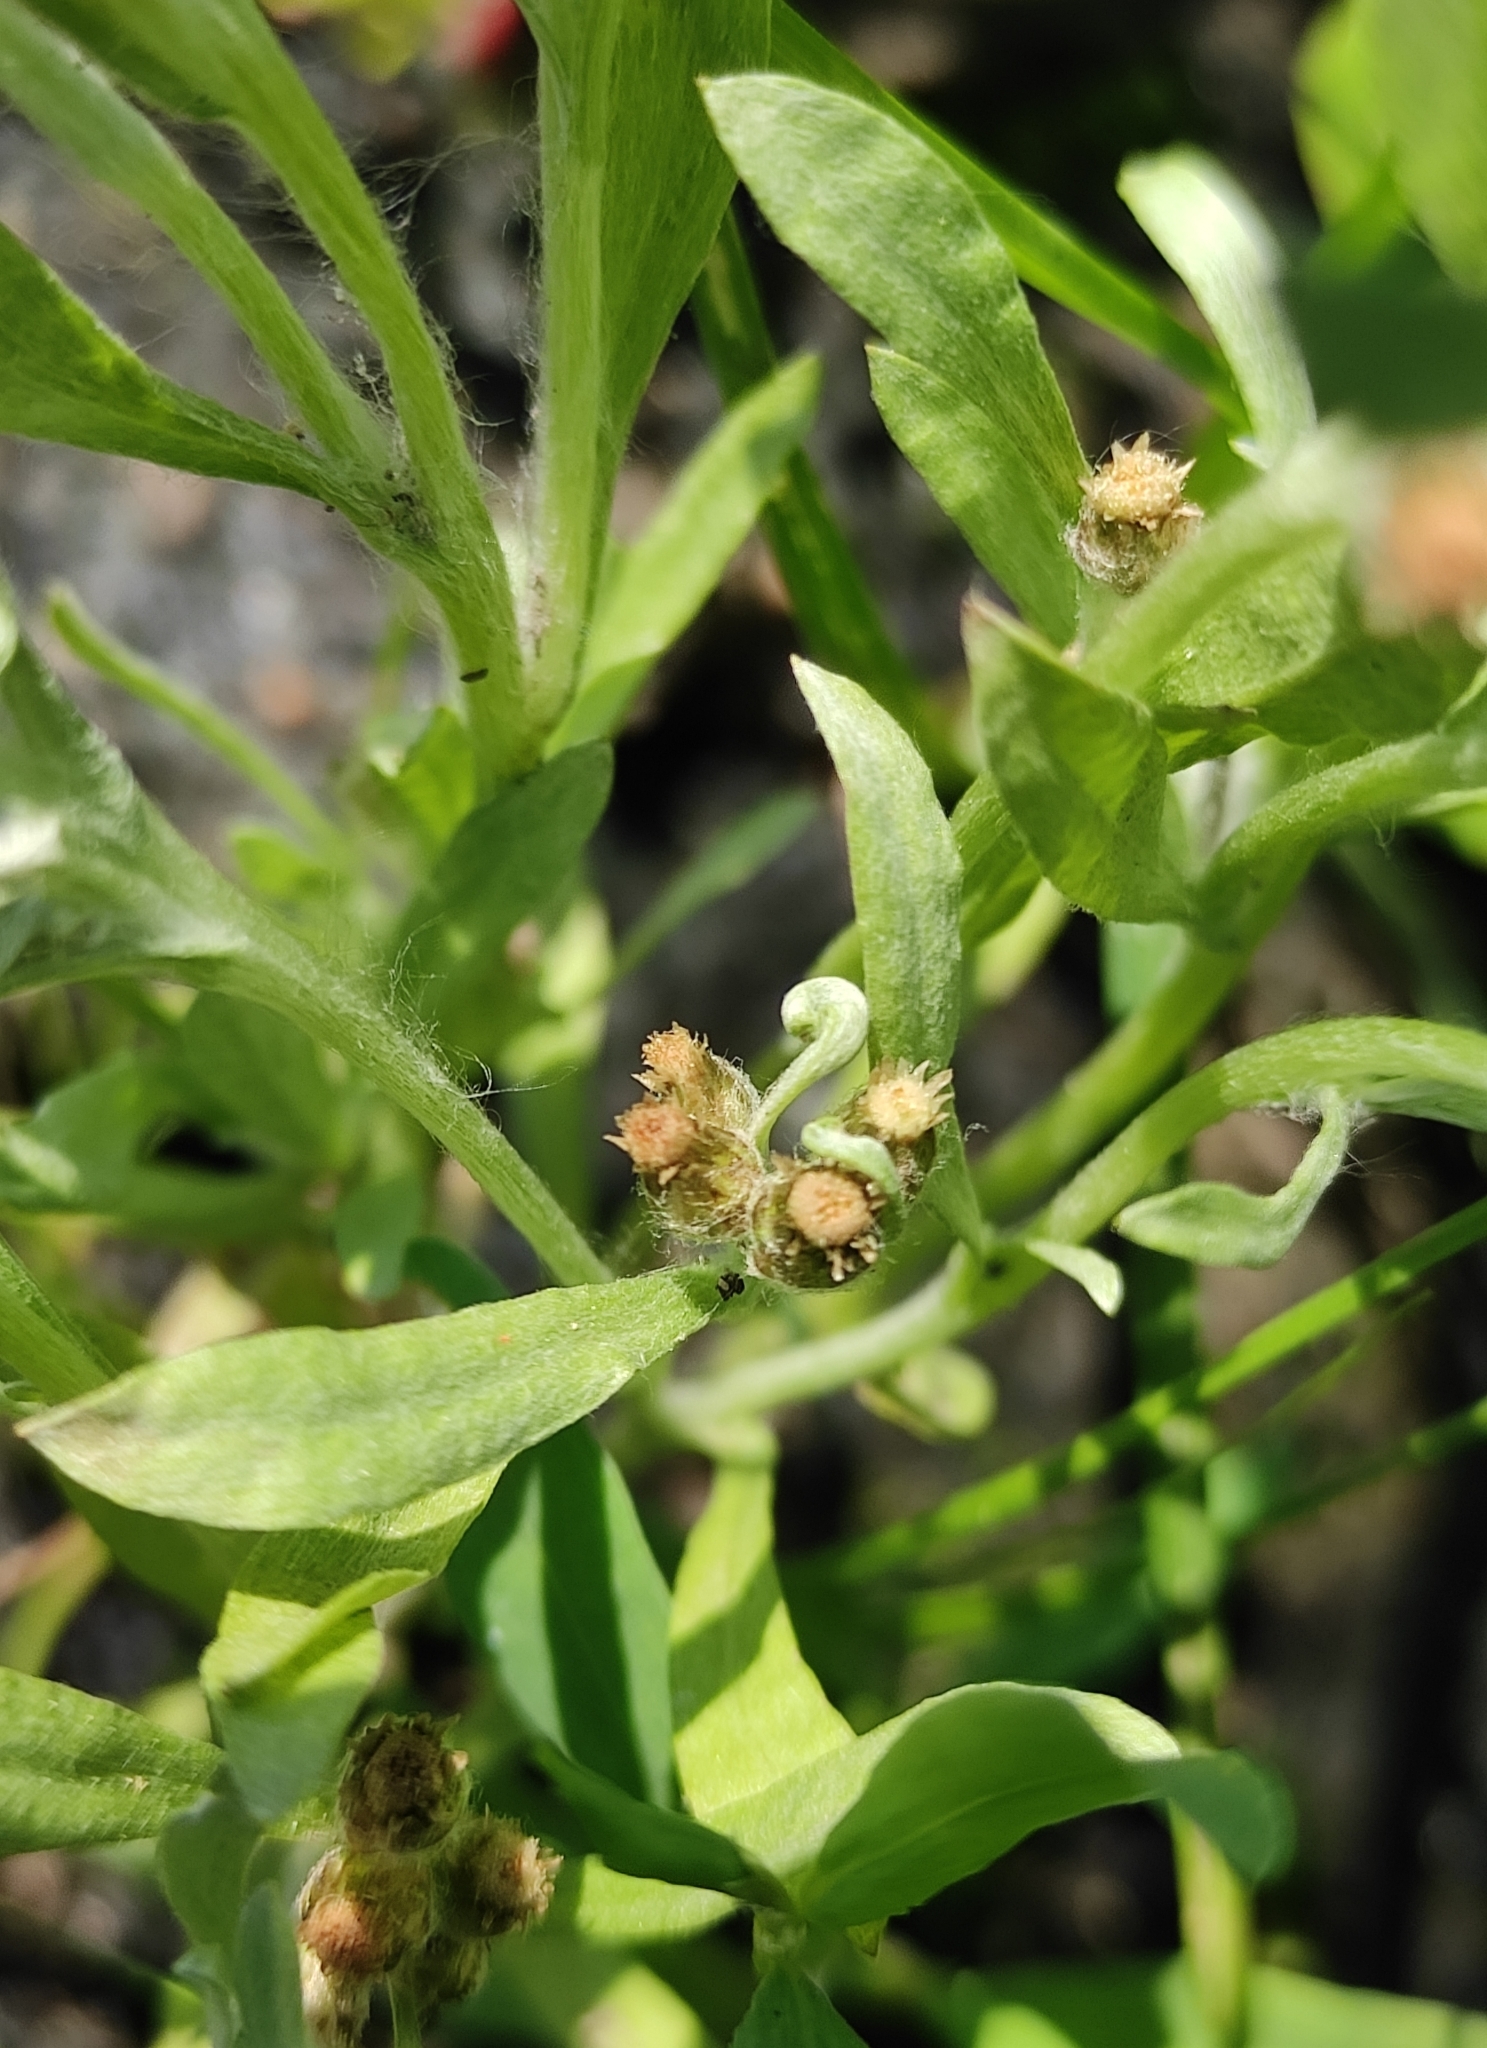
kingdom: Plantae
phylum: Tracheophyta
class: Magnoliopsida
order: Asterales
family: Asteraceae
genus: Gnaphalium
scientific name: Gnaphalium uliginosum
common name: Marsh cudweed
